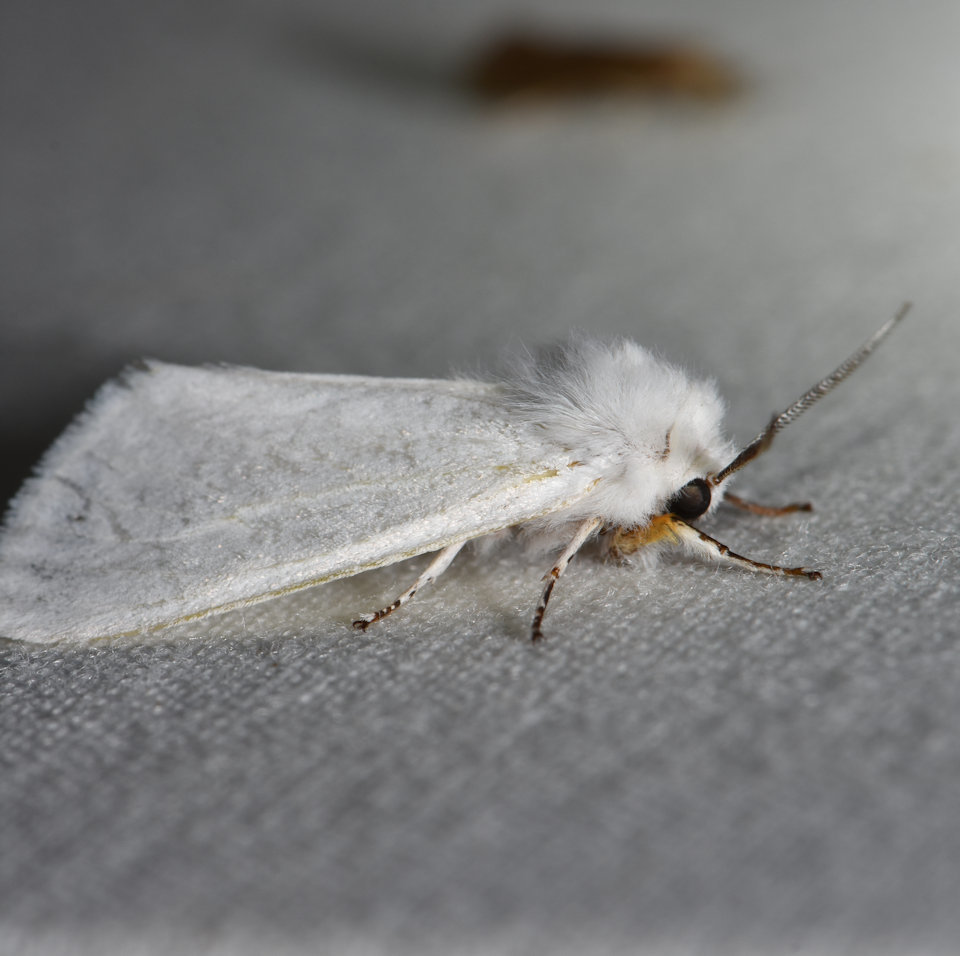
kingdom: Animalia
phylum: Arthropoda
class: Insecta
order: Lepidoptera
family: Erebidae
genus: Hyphantria
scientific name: Hyphantria cunea
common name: American white moth
